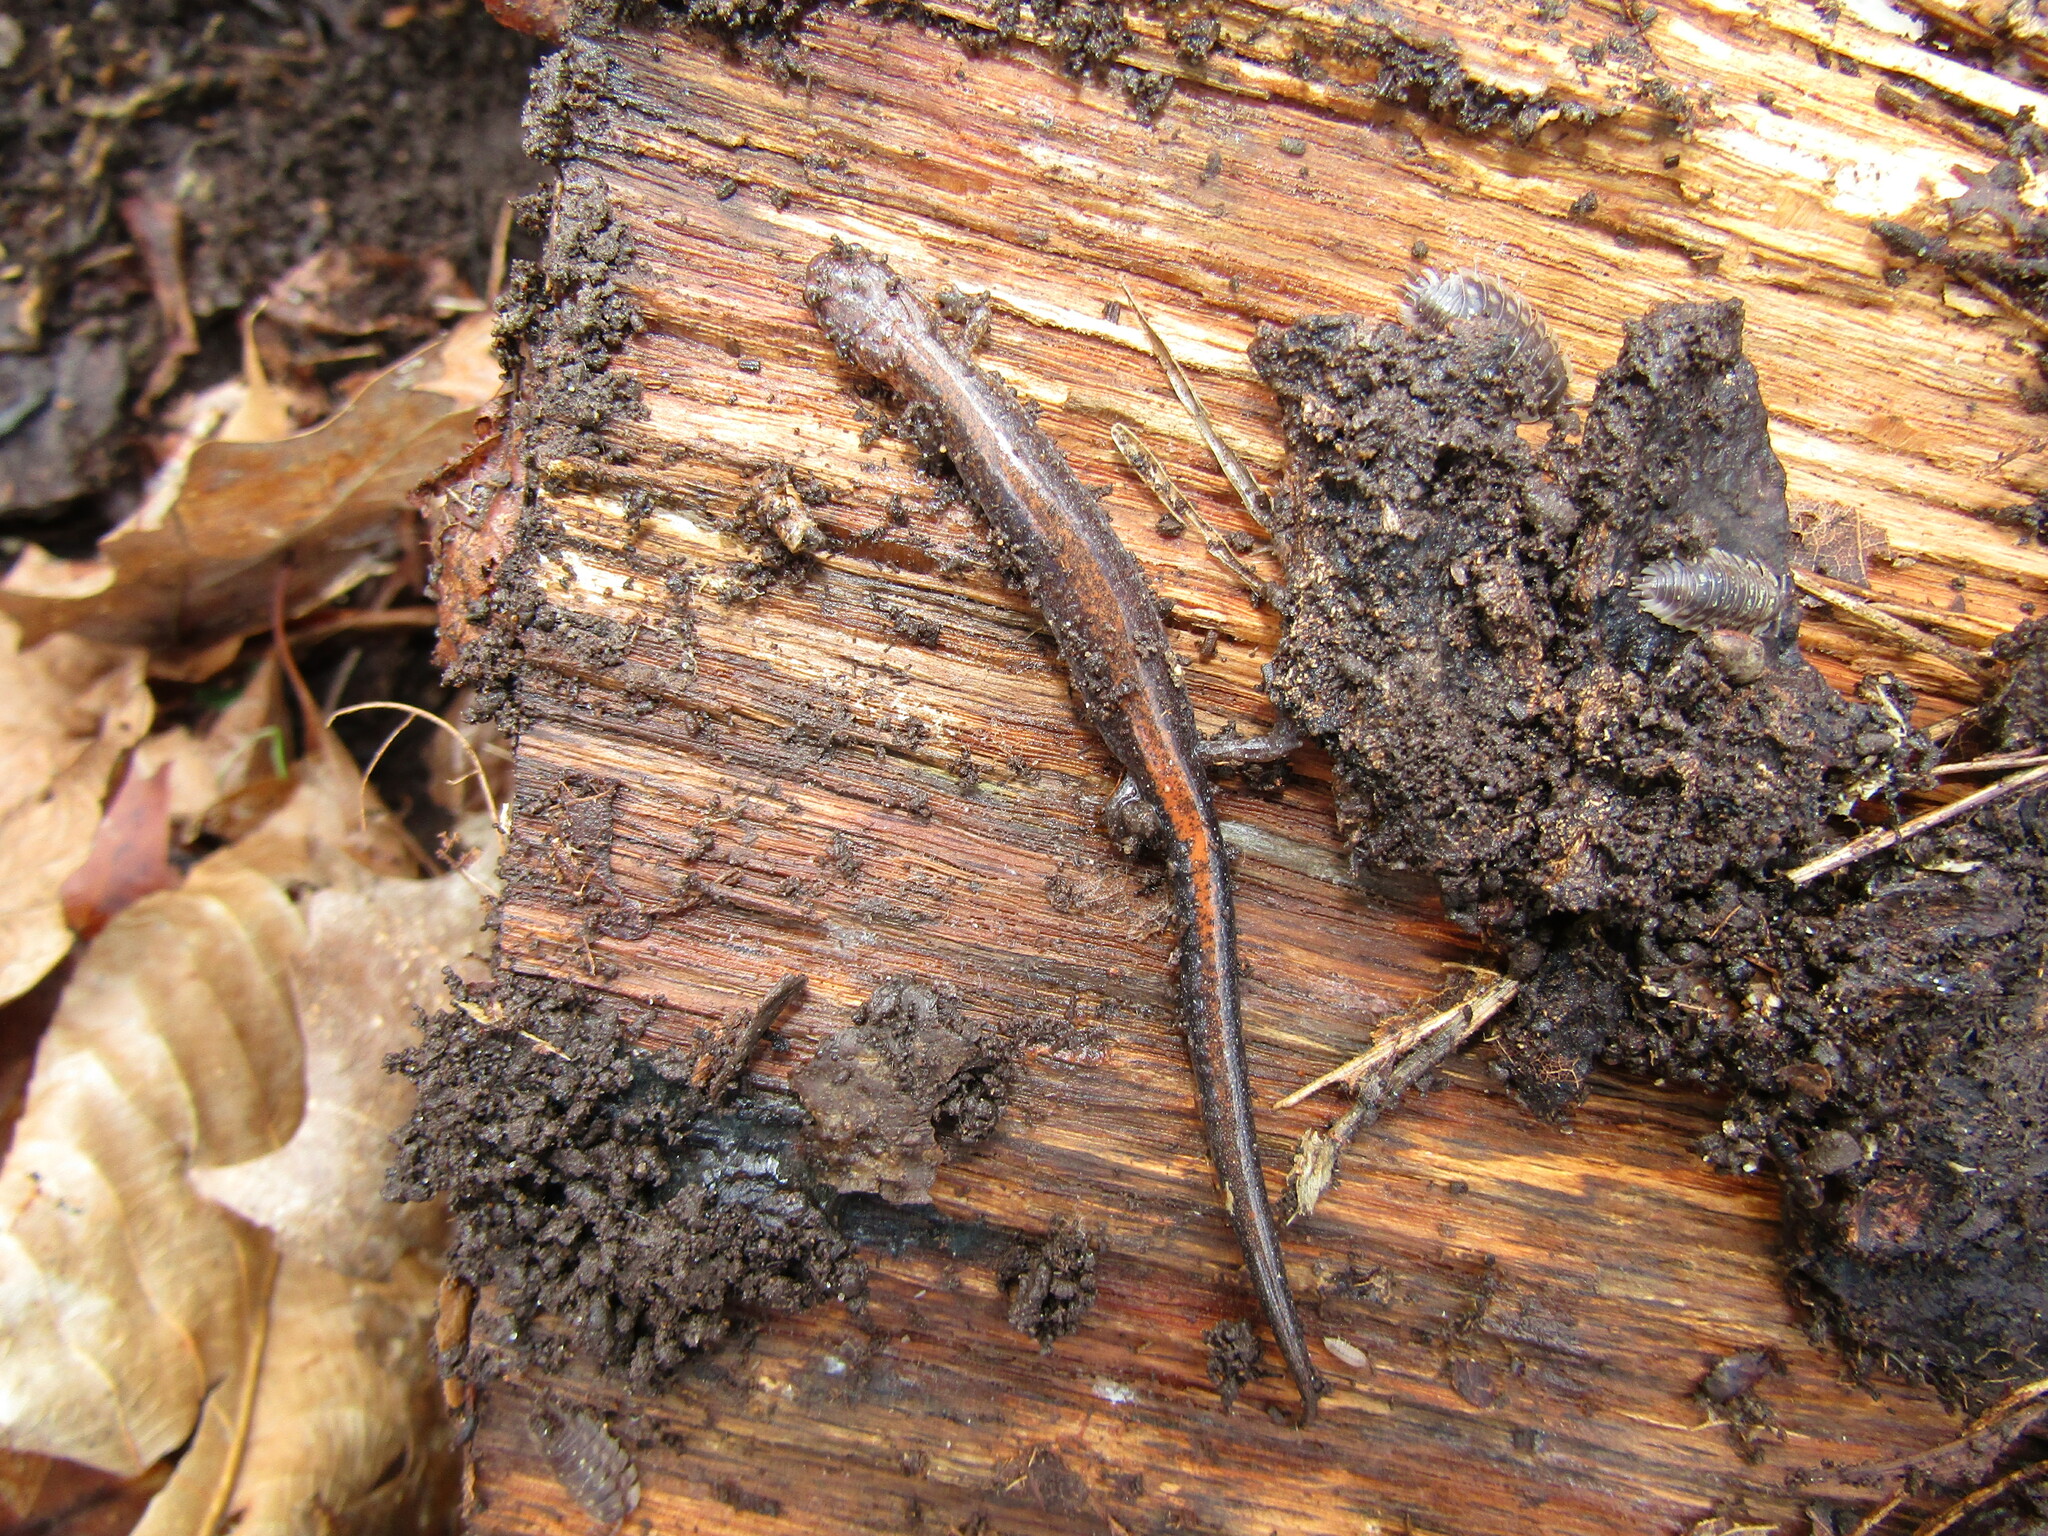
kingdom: Animalia
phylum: Chordata
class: Amphibia
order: Caudata
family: Plethodontidae
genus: Plethodon
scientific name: Plethodon cinereus
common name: Redback salamander
